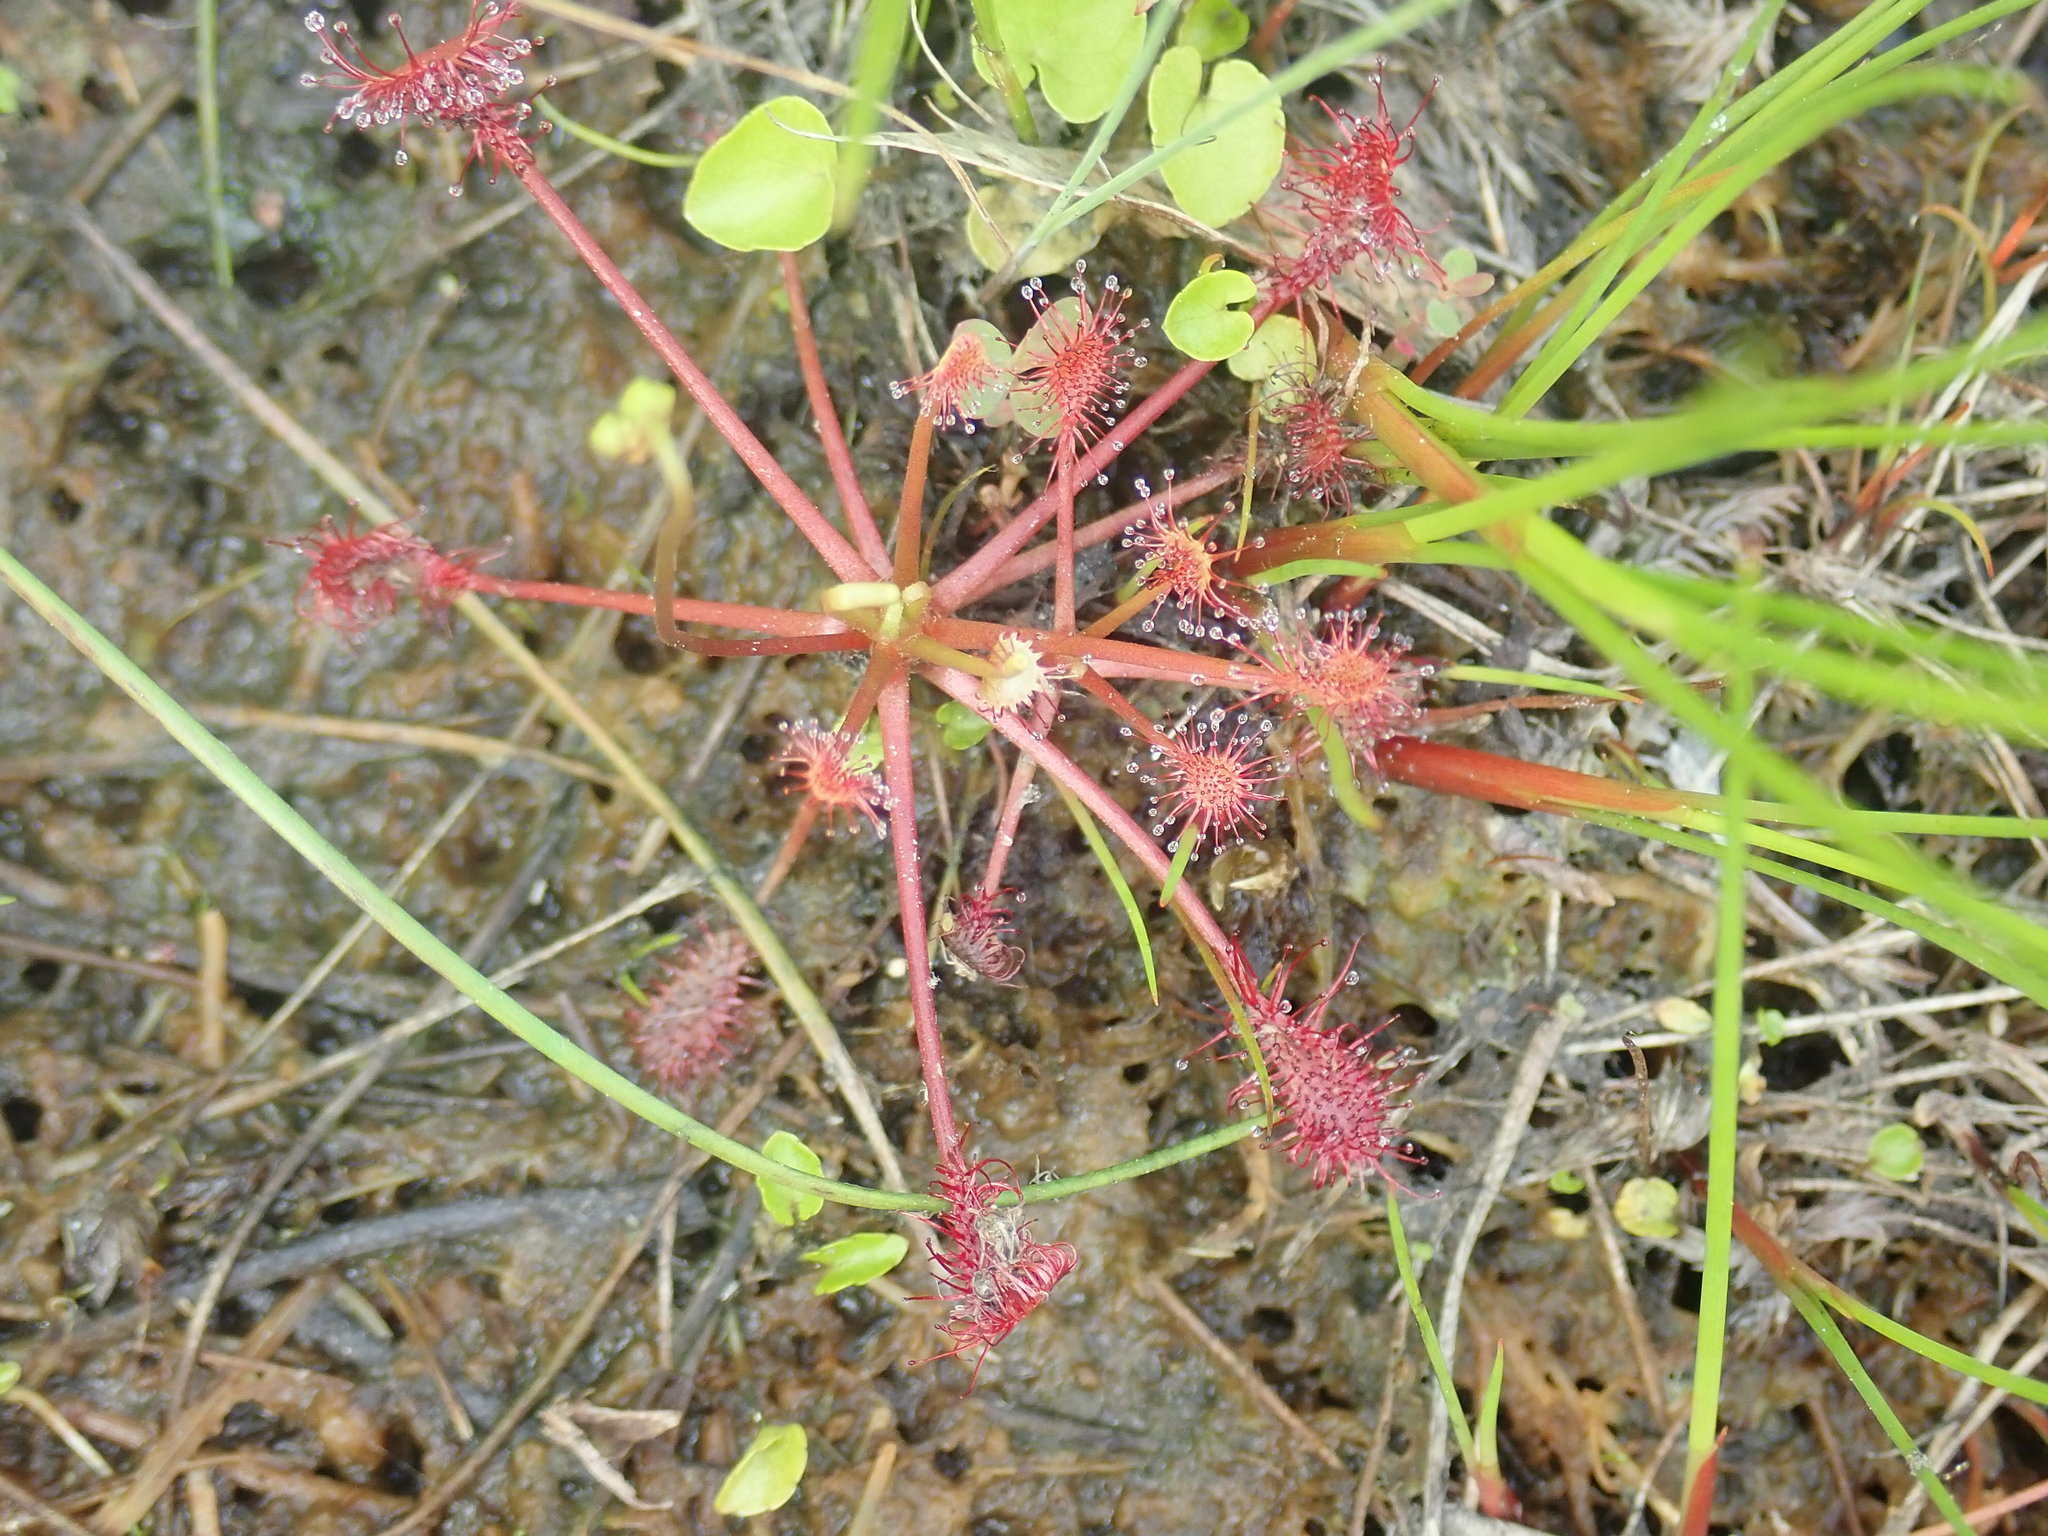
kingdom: Plantae
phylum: Tracheophyta
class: Magnoliopsida
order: Caryophyllales
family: Droseraceae
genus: Drosera
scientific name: Drosera intermedia
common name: Oblong-leaved sundew
